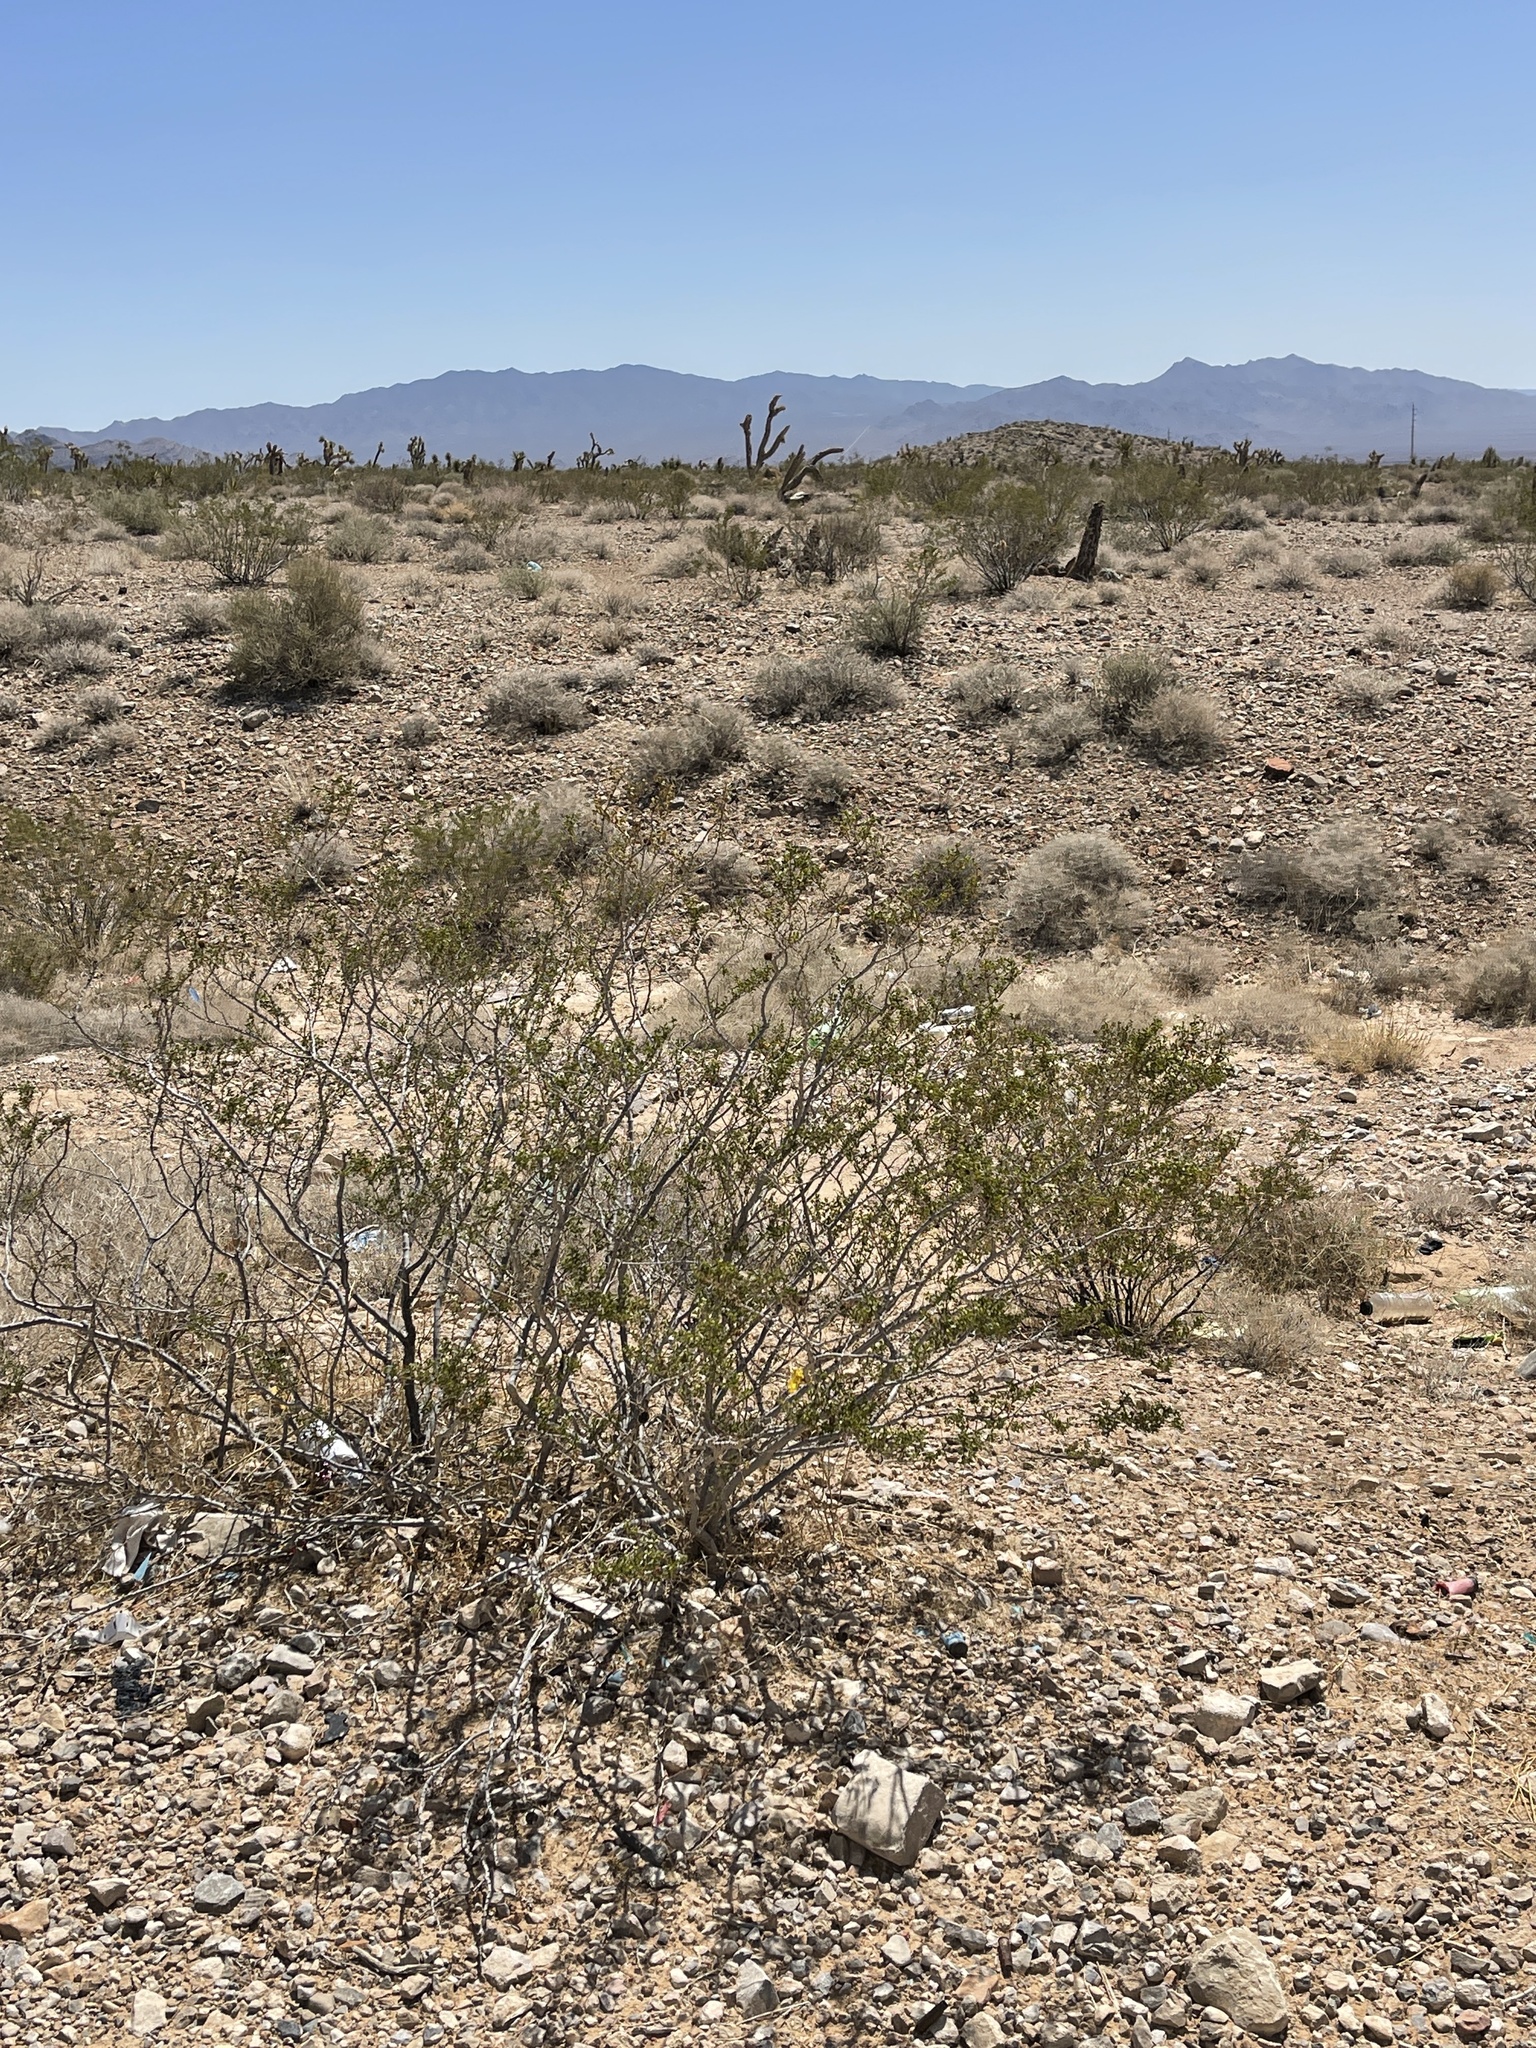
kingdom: Plantae
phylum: Tracheophyta
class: Magnoliopsida
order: Zygophyllales
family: Zygophyllaceae
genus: Larrea
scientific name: Larrea tridentata
